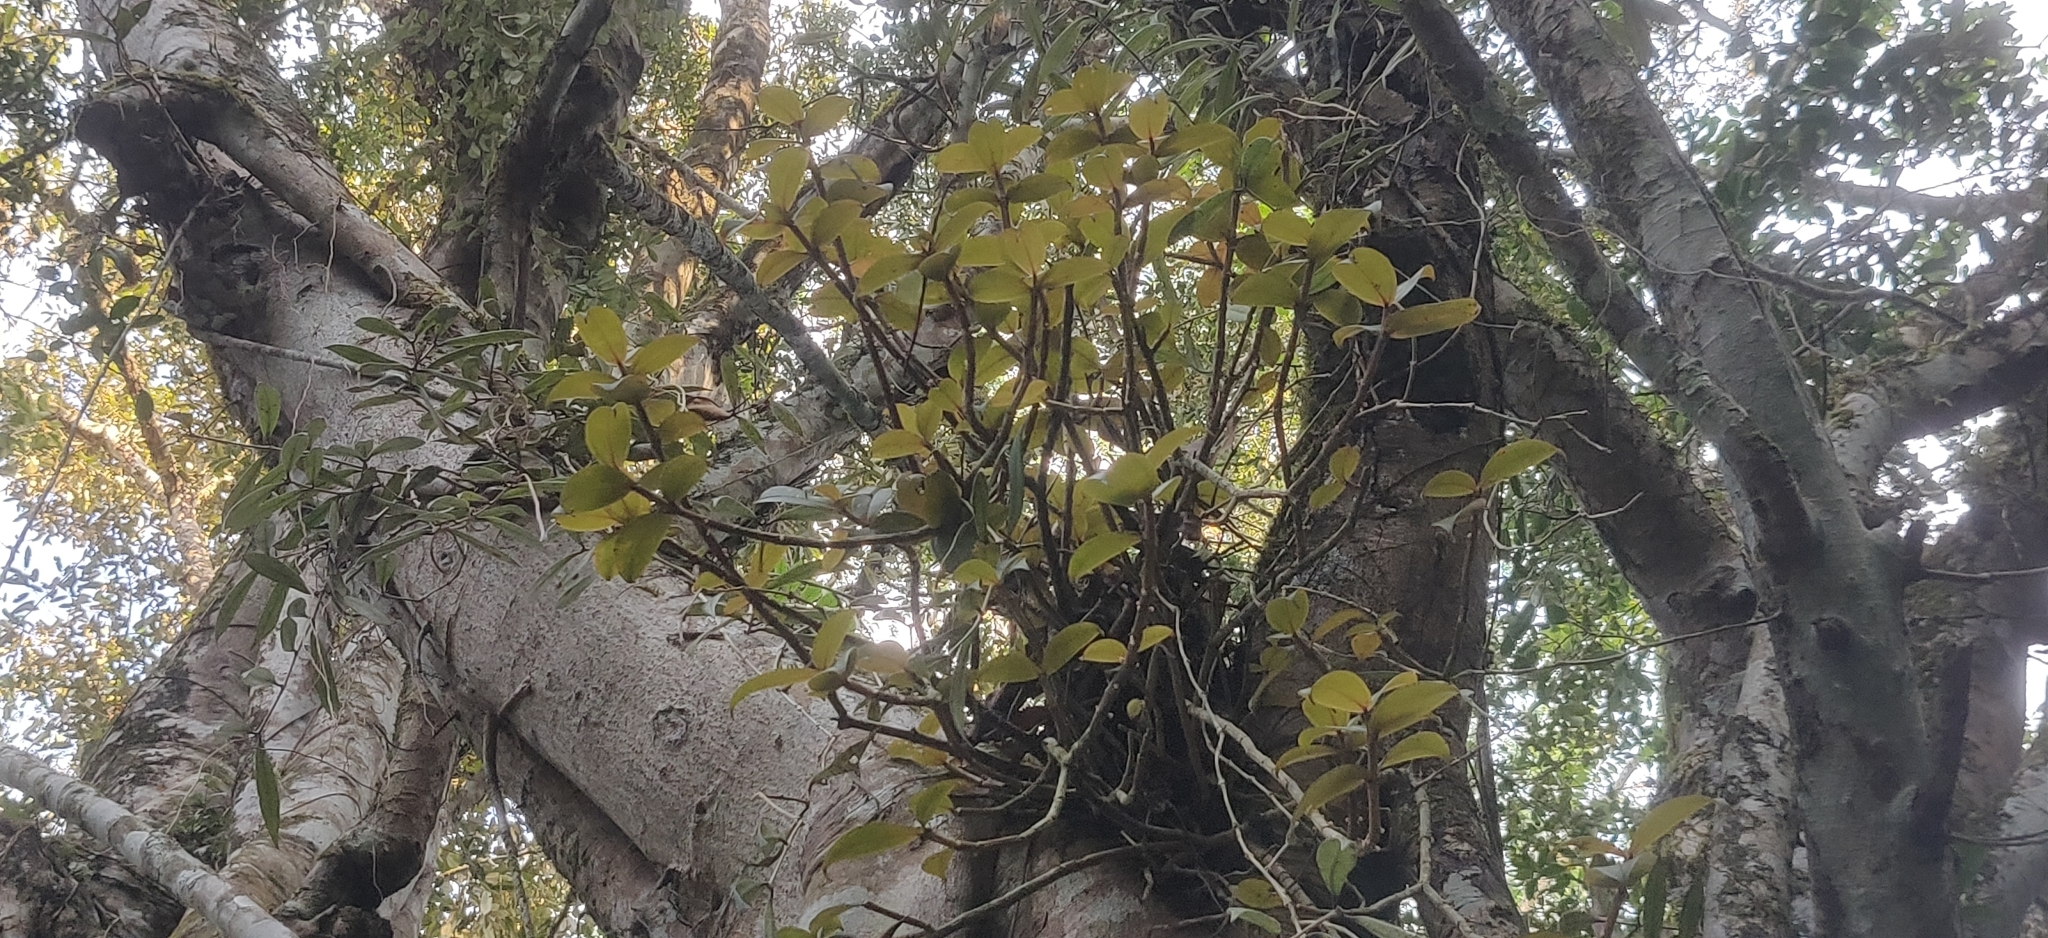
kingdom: Plantae
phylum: Tracheophyta
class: Magnoliopsida
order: Myrtales
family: Melastomataceae
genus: Medinilla
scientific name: Medinilla anamalaiana
